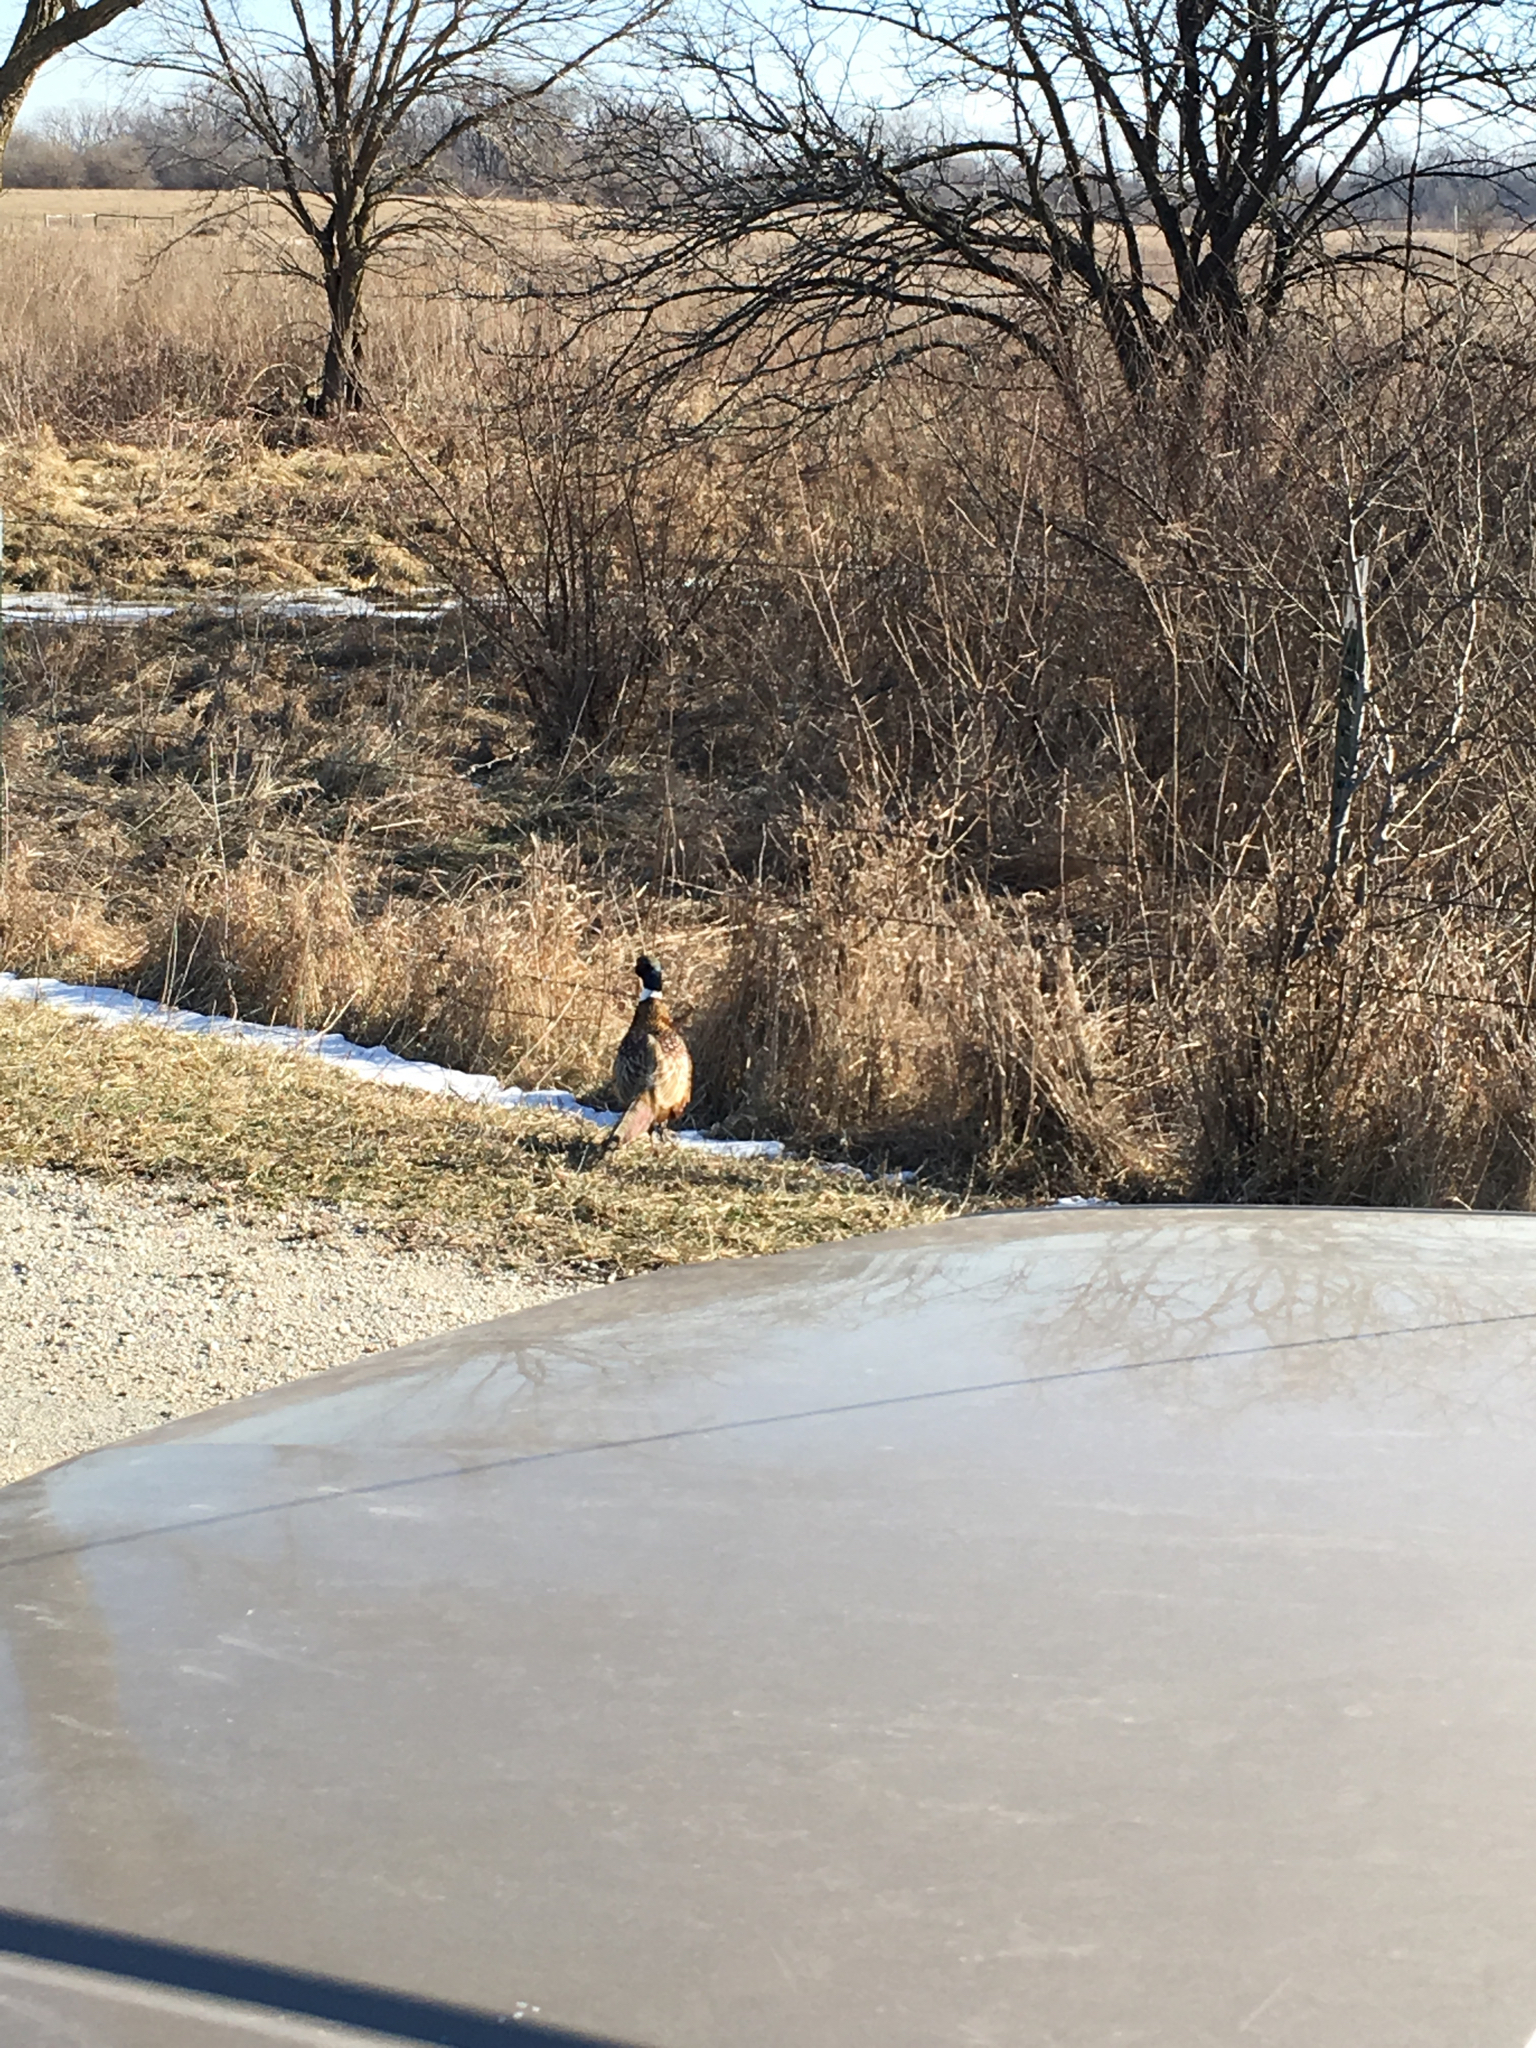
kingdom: Animalia
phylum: Chordata
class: Aves
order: Galliformes
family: Phasianidae
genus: Phasianus
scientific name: Phasianus colchicus
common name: Common pheasant
